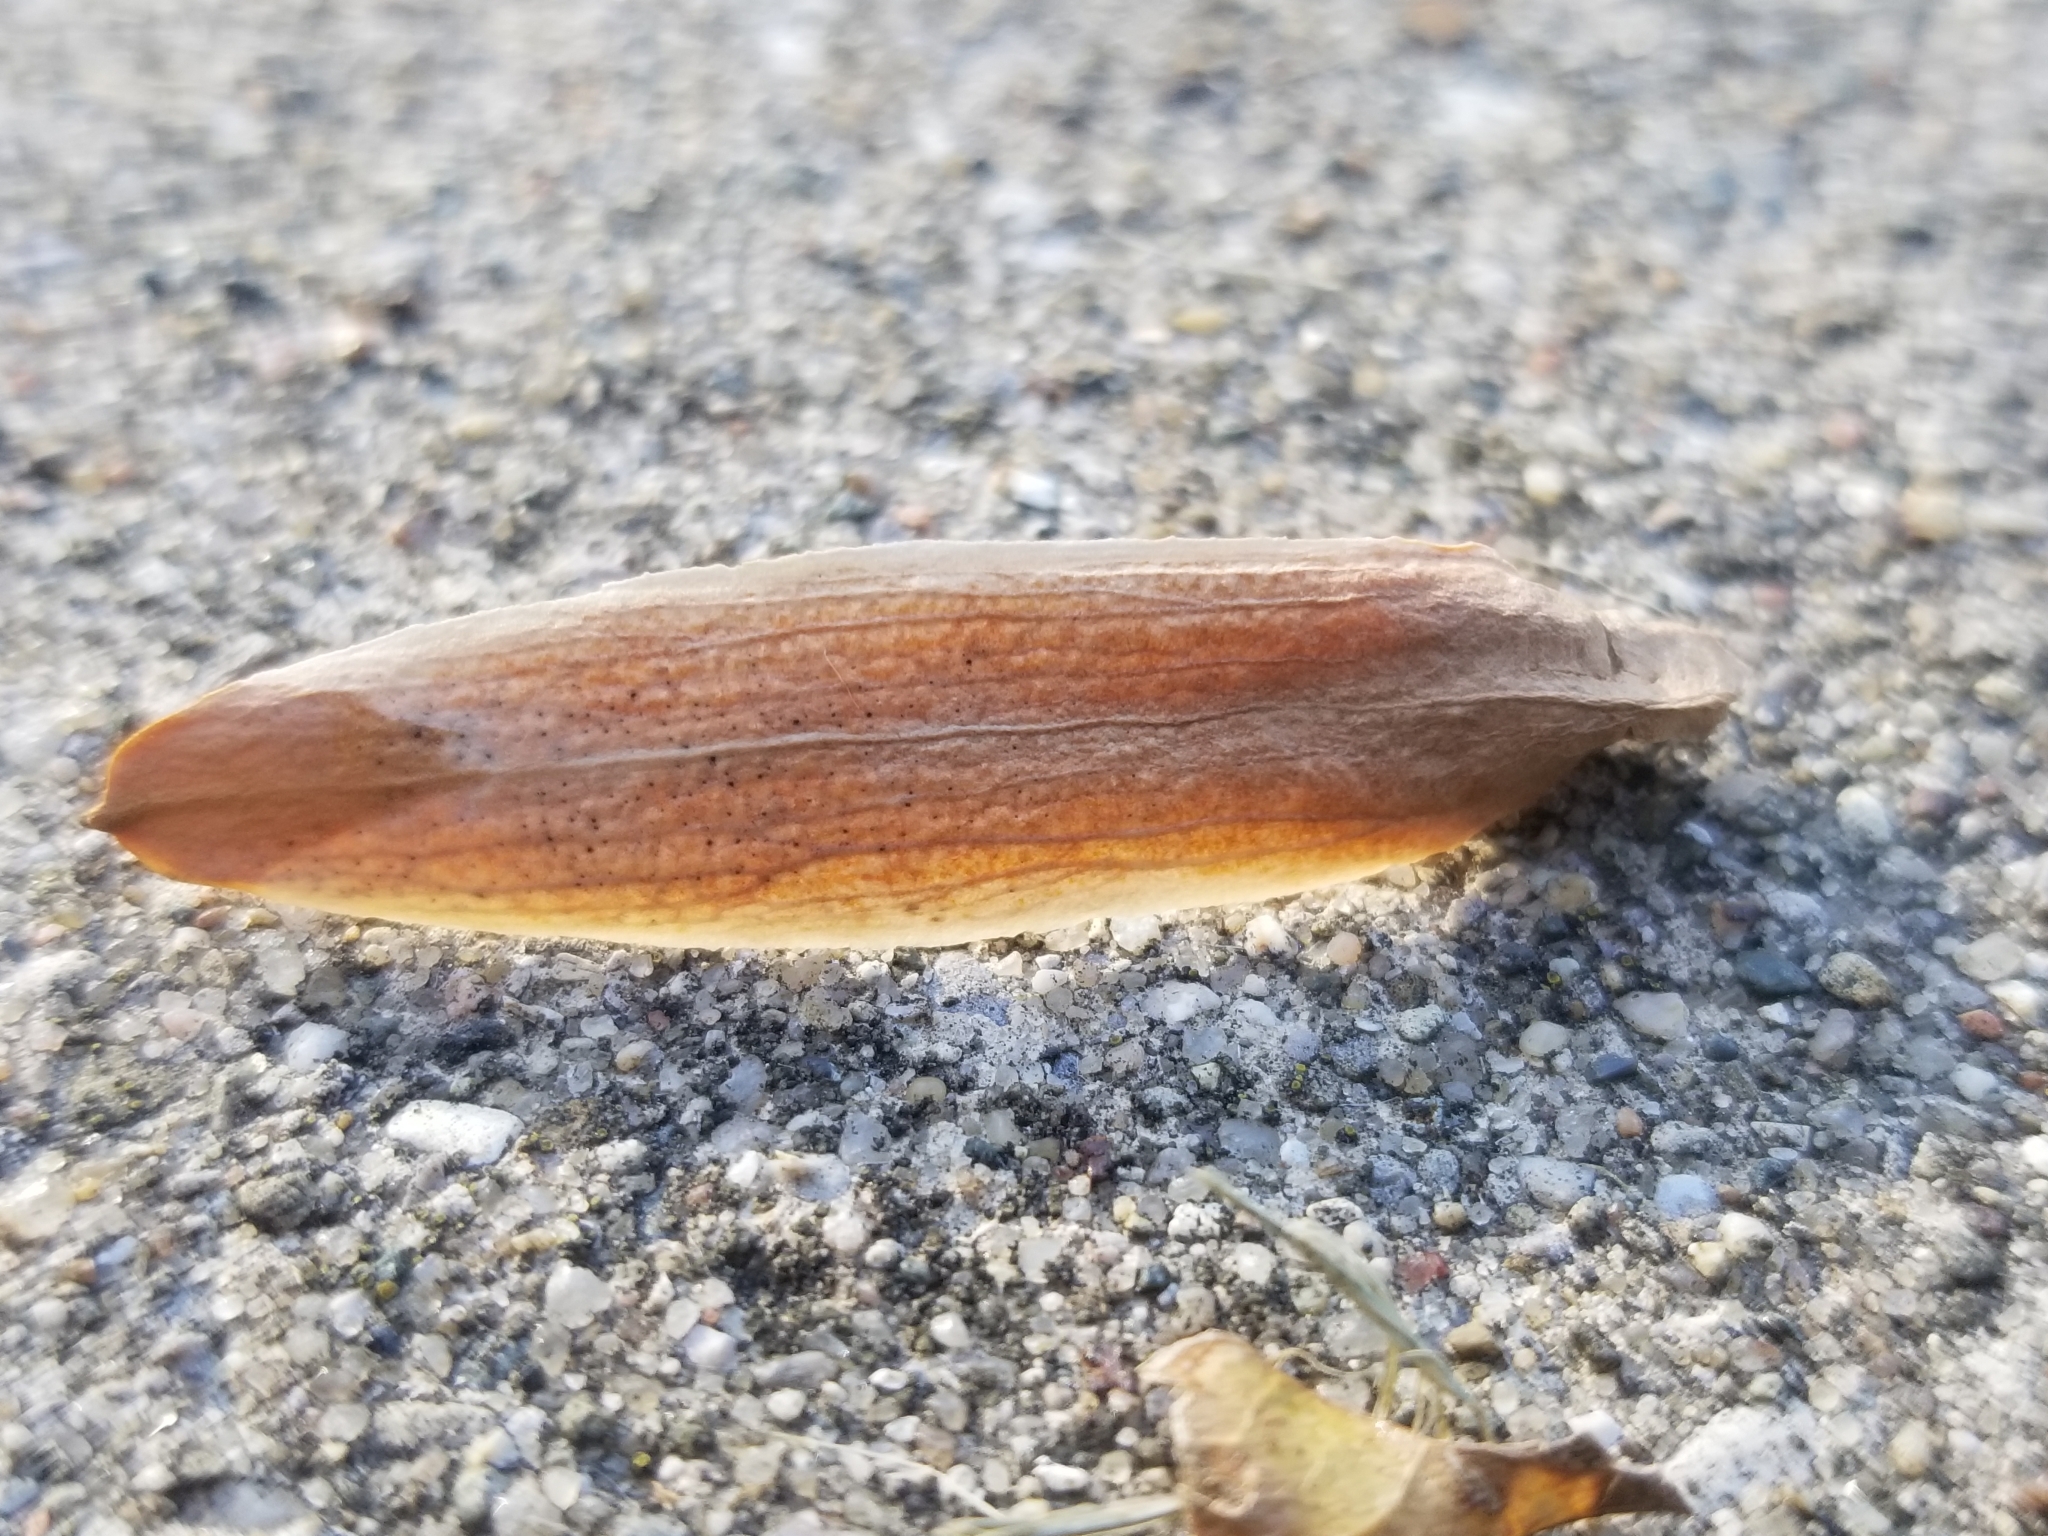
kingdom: Plantae
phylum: Tracheophyta
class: Magnoliopsida
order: Magnoliales
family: Magnoliaceae
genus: Liriodendron
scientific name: Liriodendron tulipifera
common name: Tulip tree
